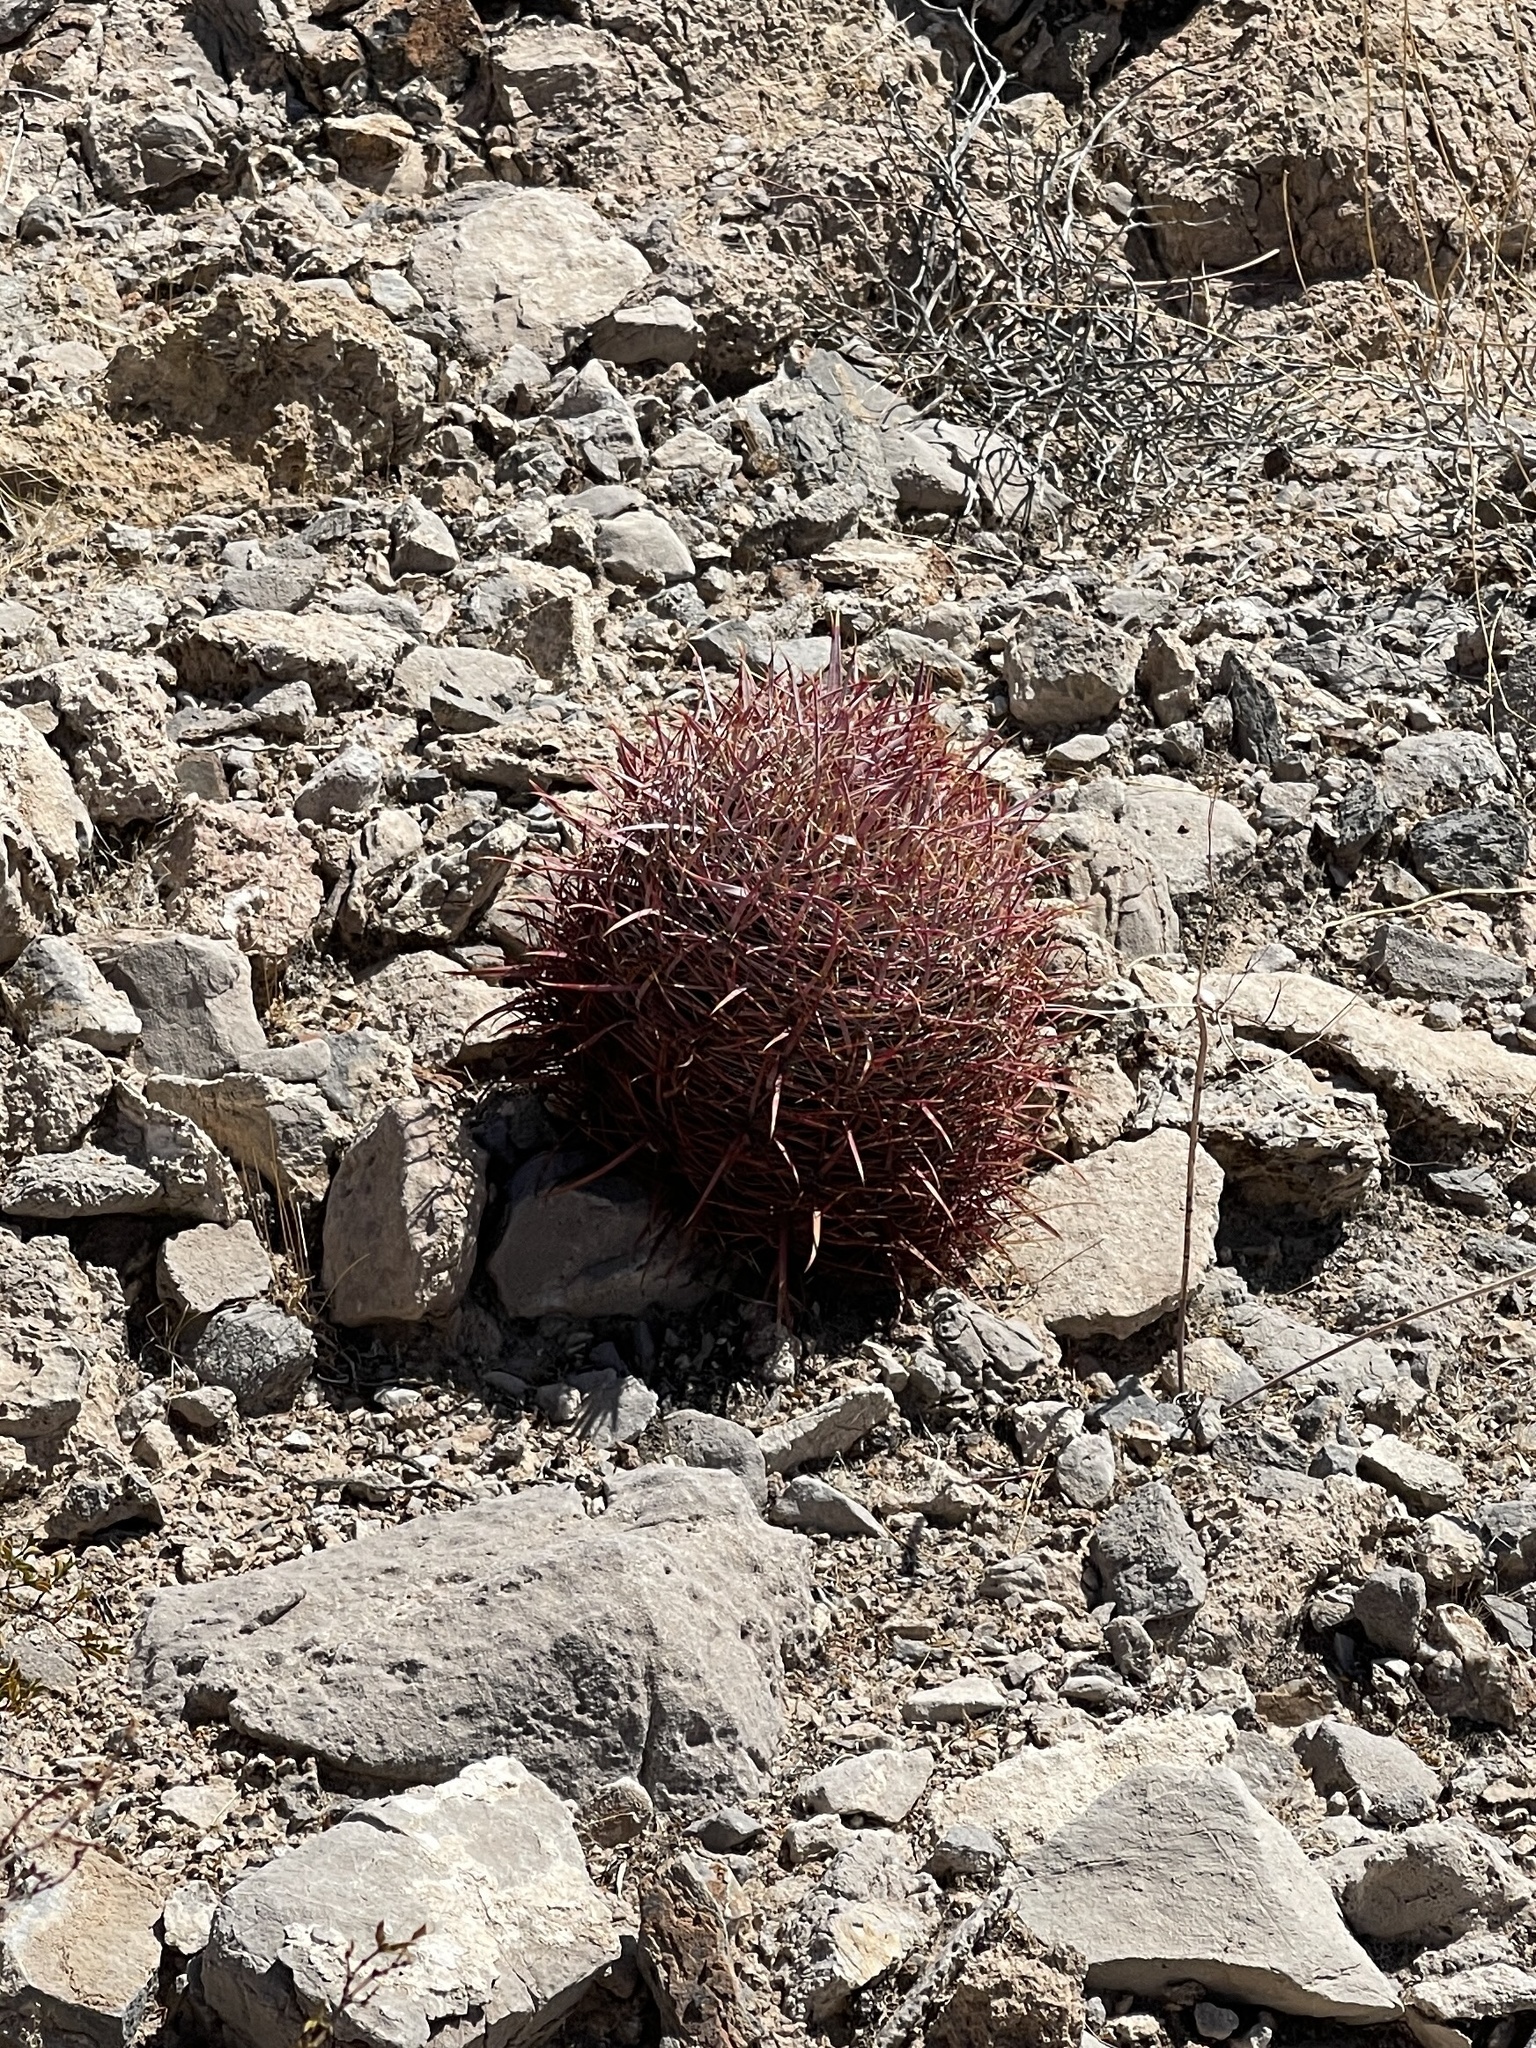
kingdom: Plantae
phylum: Tracheophyta
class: Magnoliopsida
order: Caryophyllales
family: Cactaceae
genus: Ferocactus
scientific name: Ferocactus cylindraceus
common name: California barrel cactus
